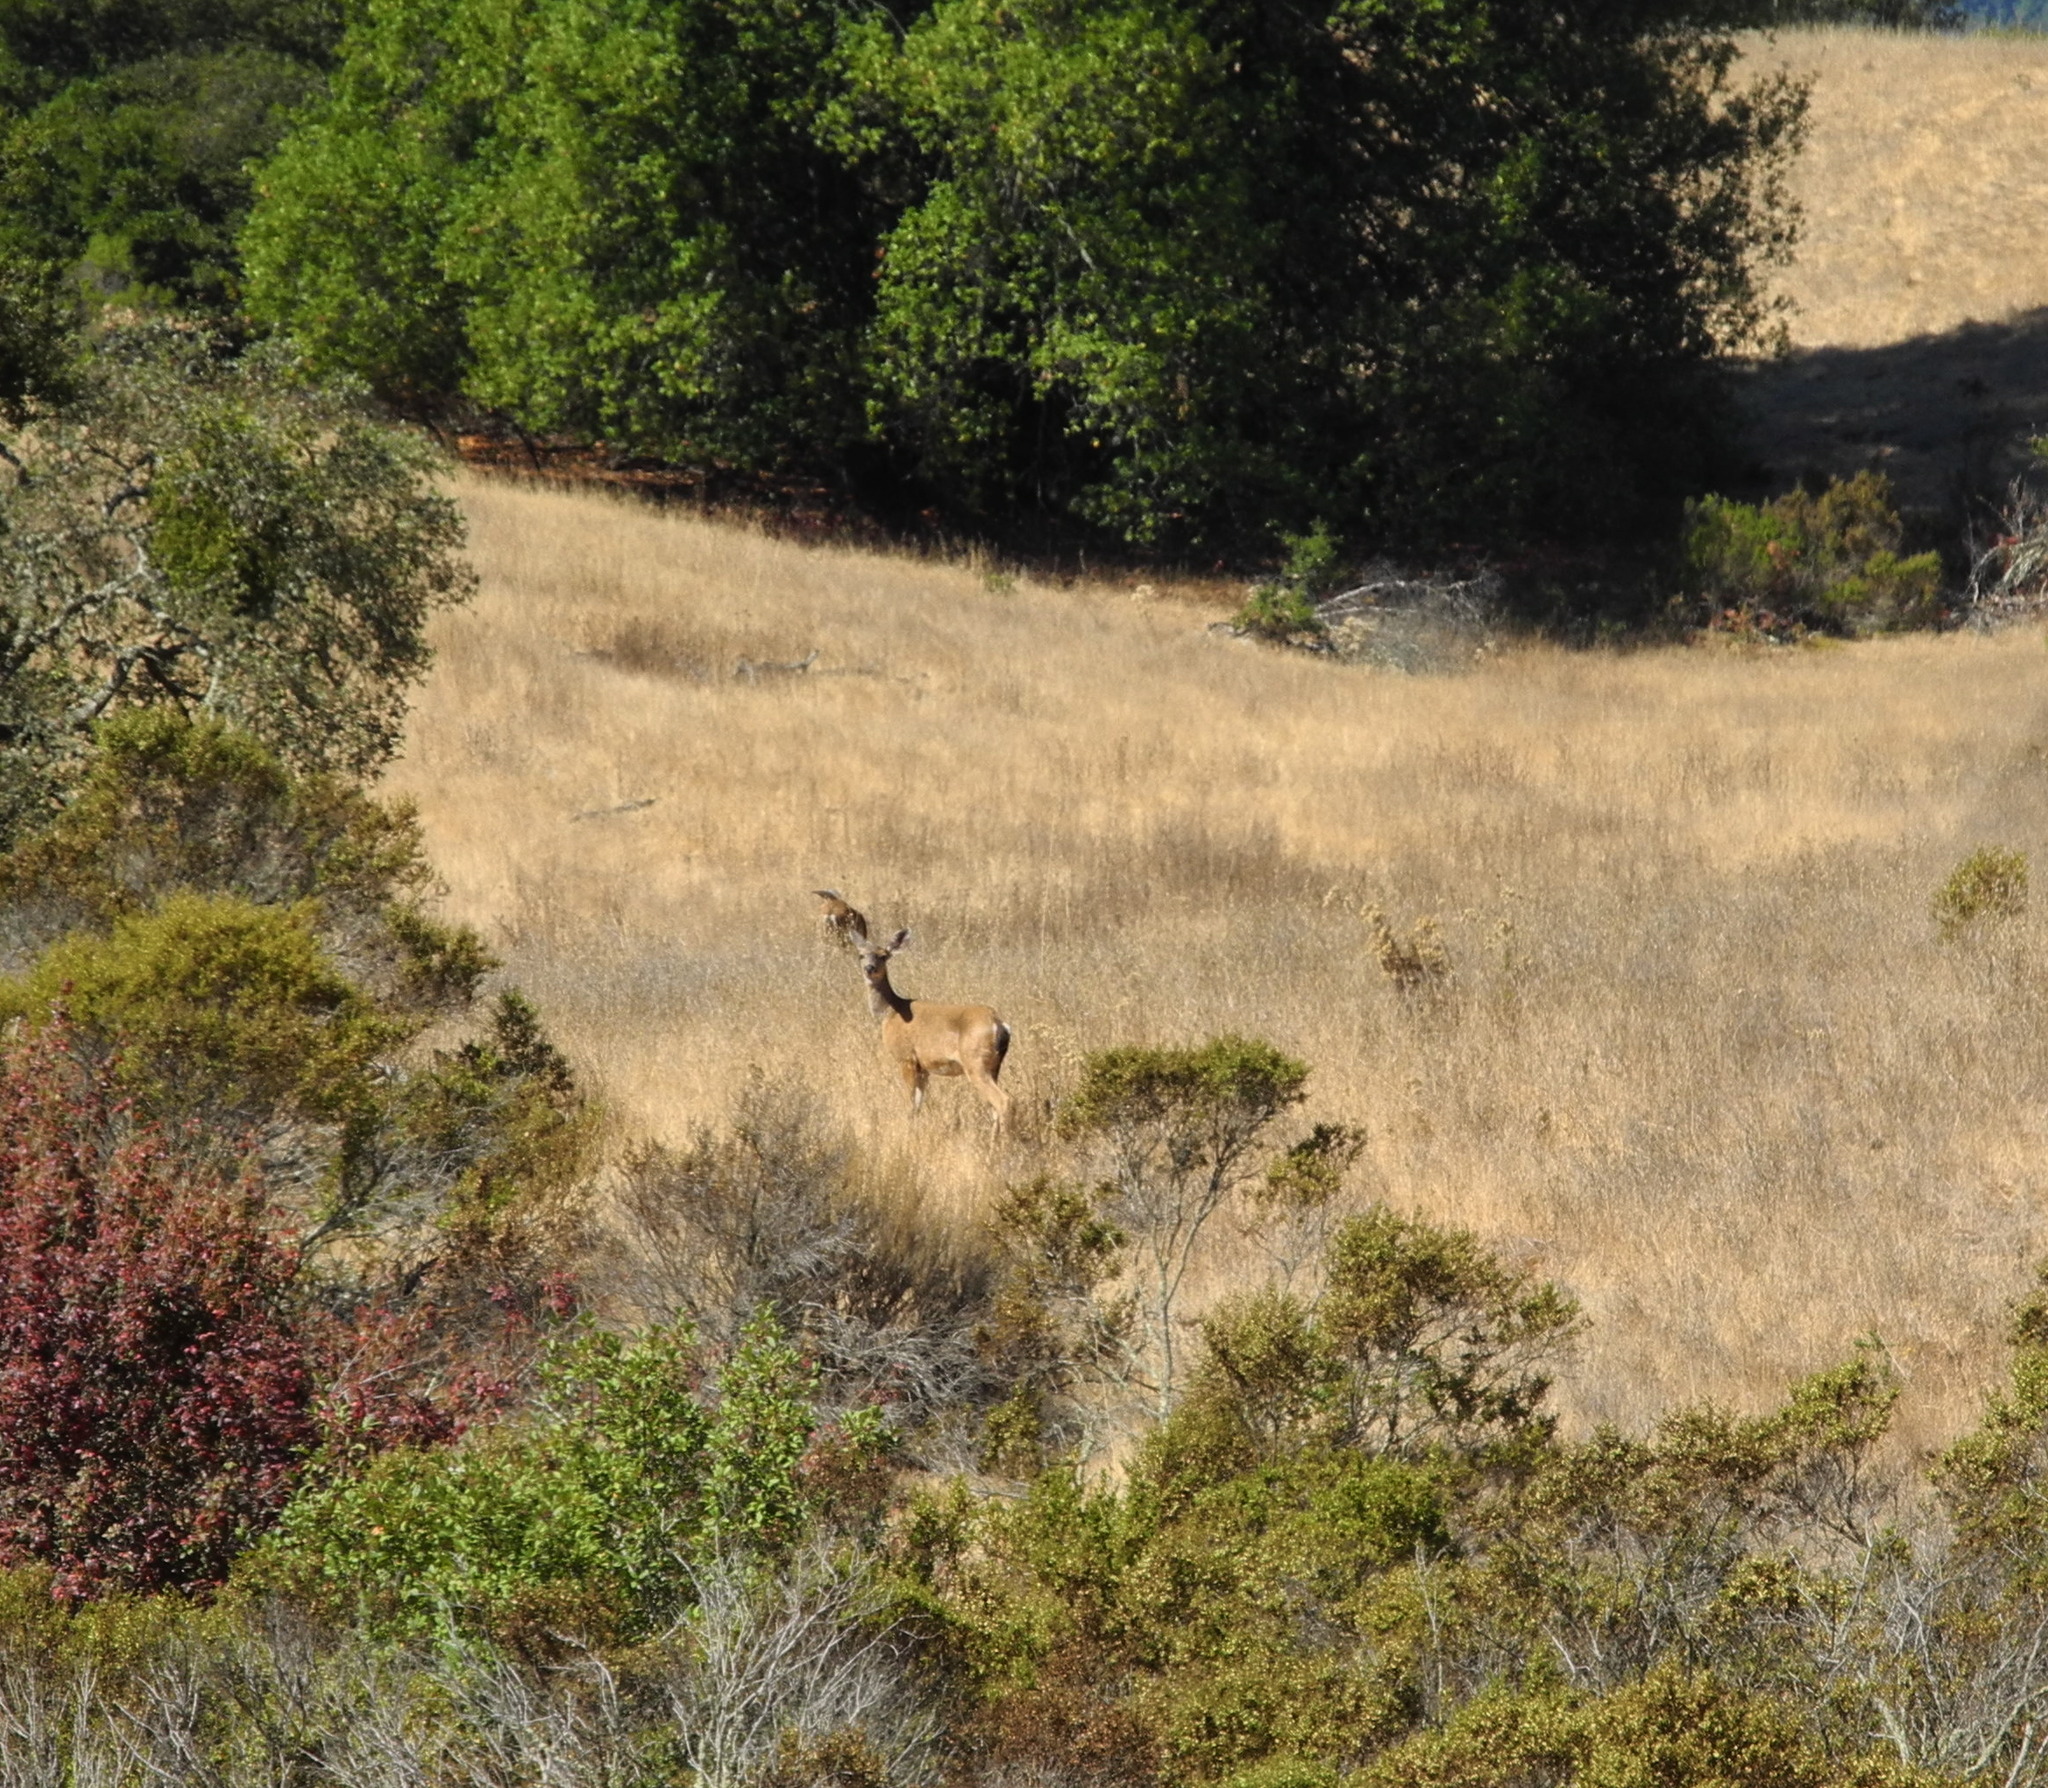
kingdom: Animalia
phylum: Chordata
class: Mammalia
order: Artiodactyla
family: Cervidae
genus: Odocoileus
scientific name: Odocoileus hemionus
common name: Mule deer
